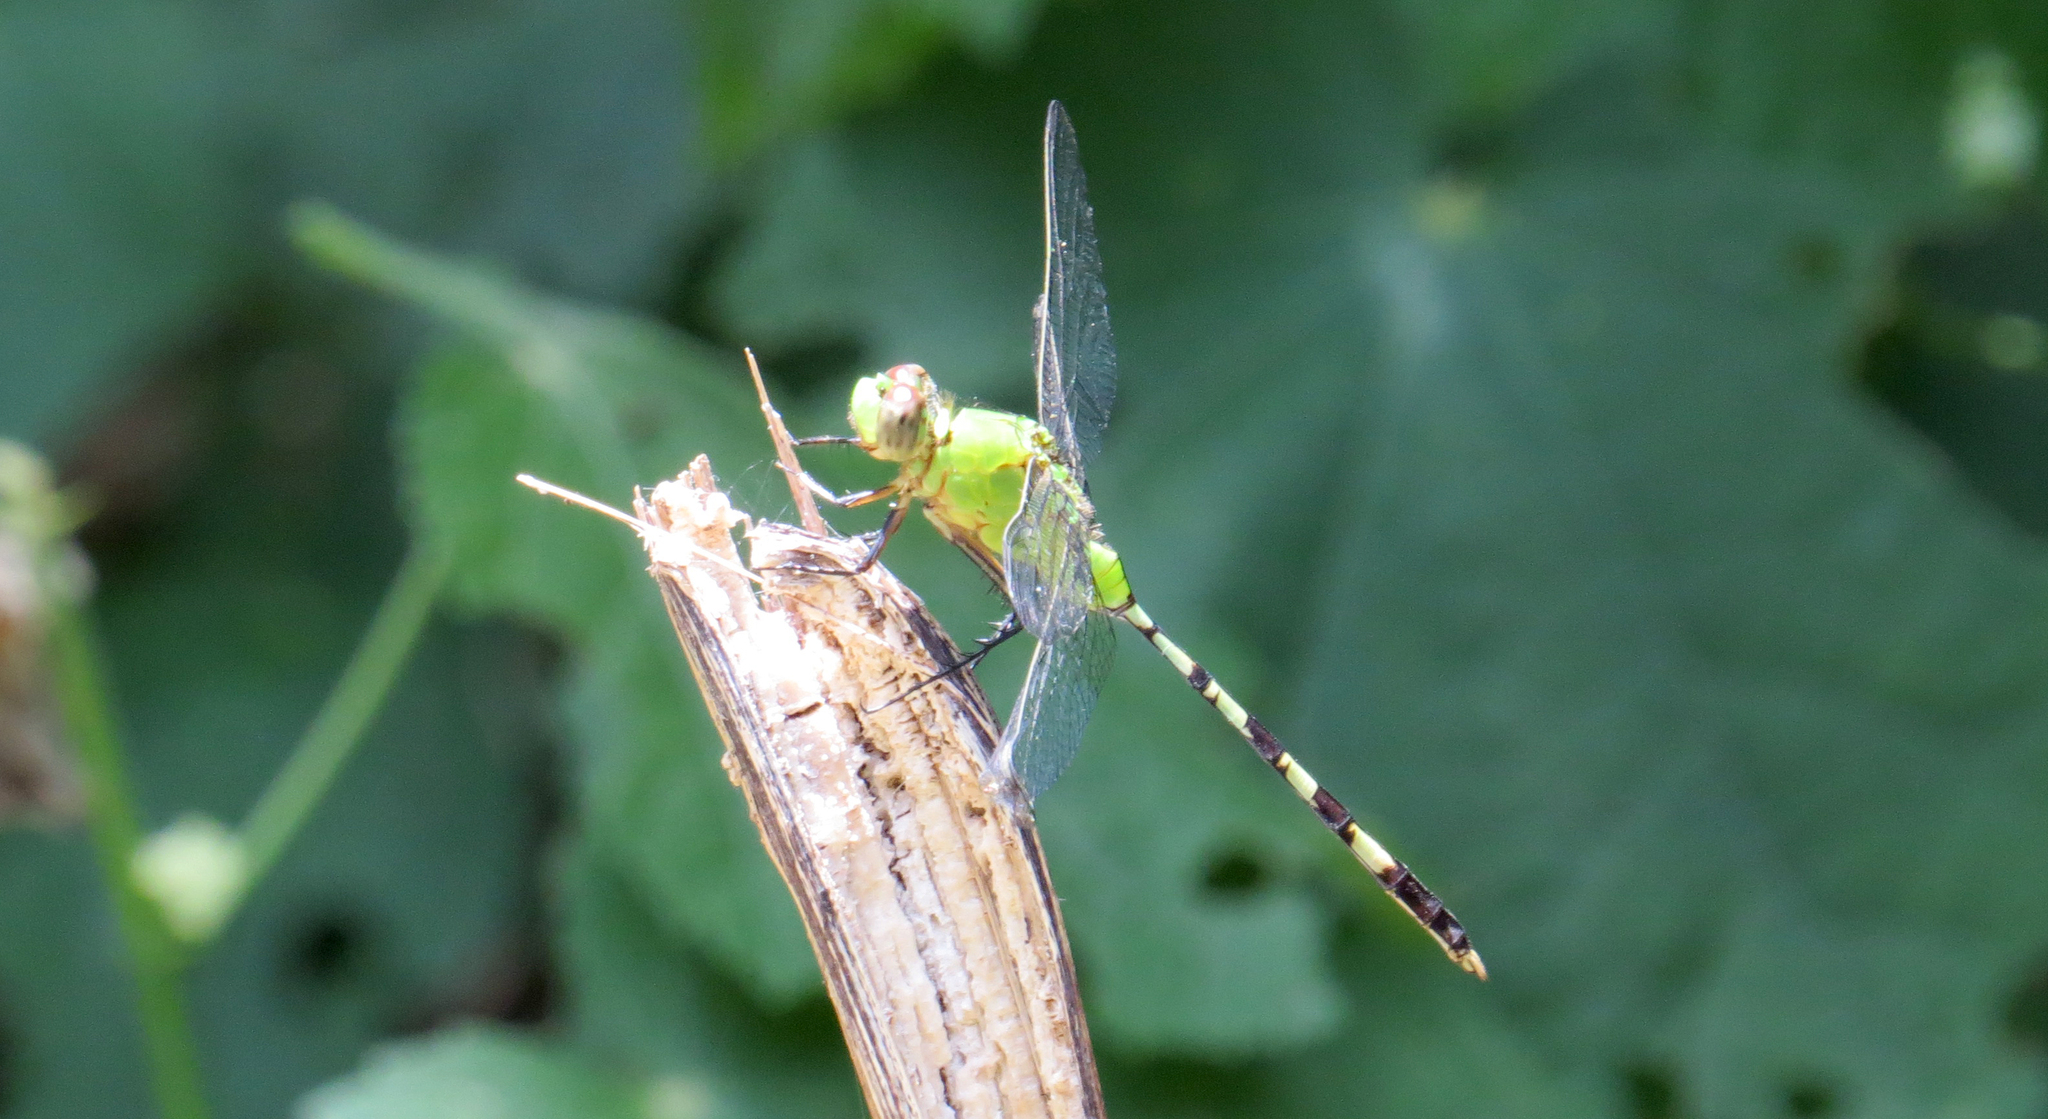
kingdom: Animalia
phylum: Arthropoda
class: Insecta
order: Odonata
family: Libellulidae
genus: Erythemis
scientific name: Erythemis vesiculosa
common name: Great pondhawk
